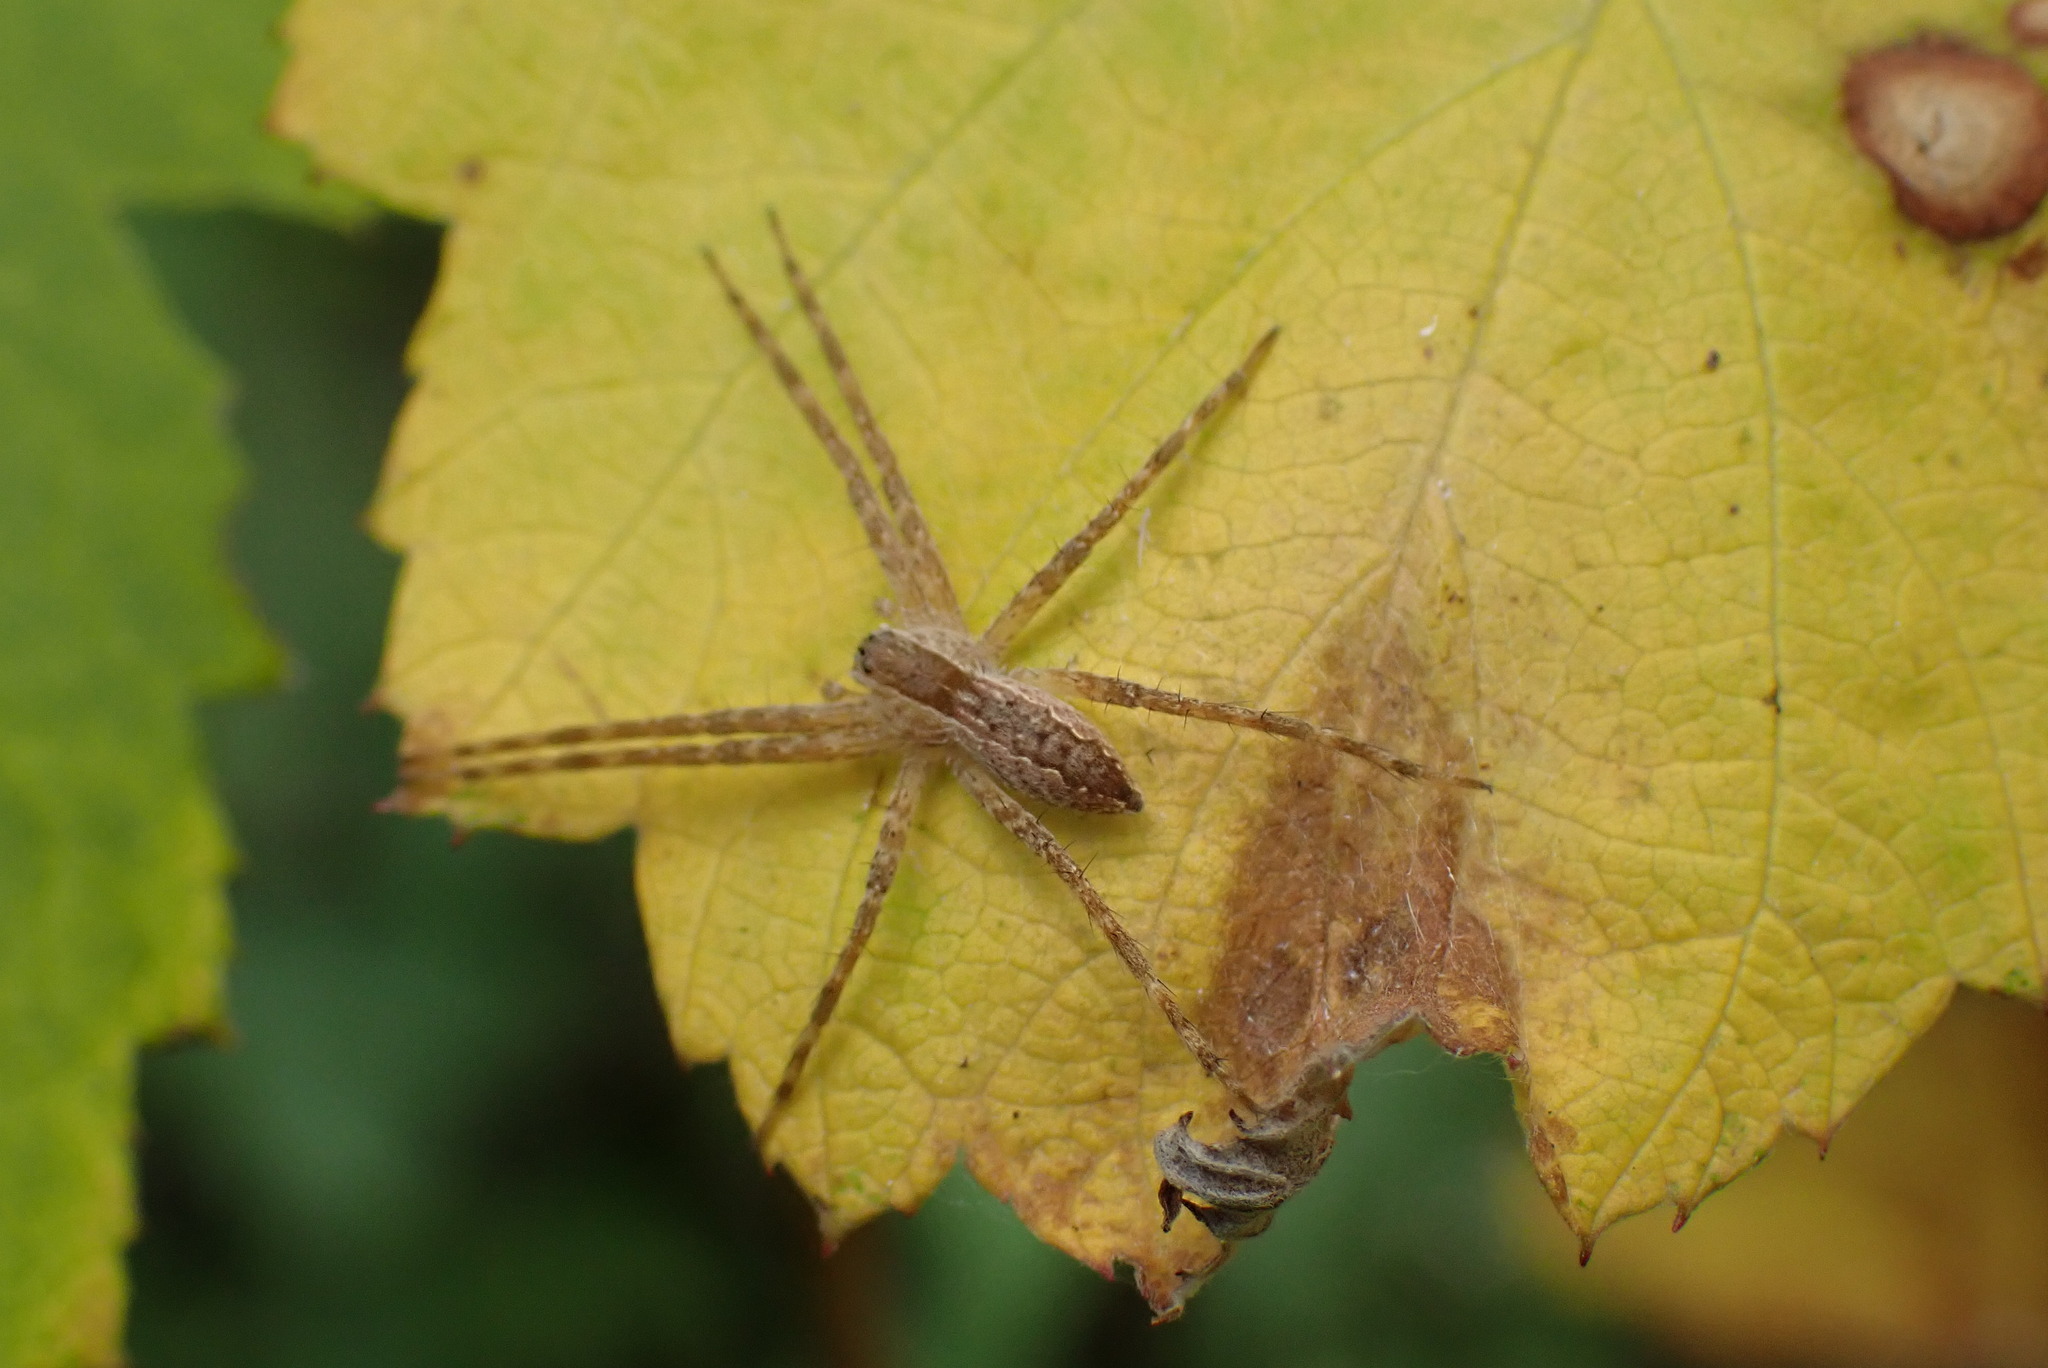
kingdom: Animalia
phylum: Arthropoda
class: Arachnida
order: Araneae
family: Pisauridae
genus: Pisaurina
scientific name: Pisaurina mira
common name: American nursery web spider
